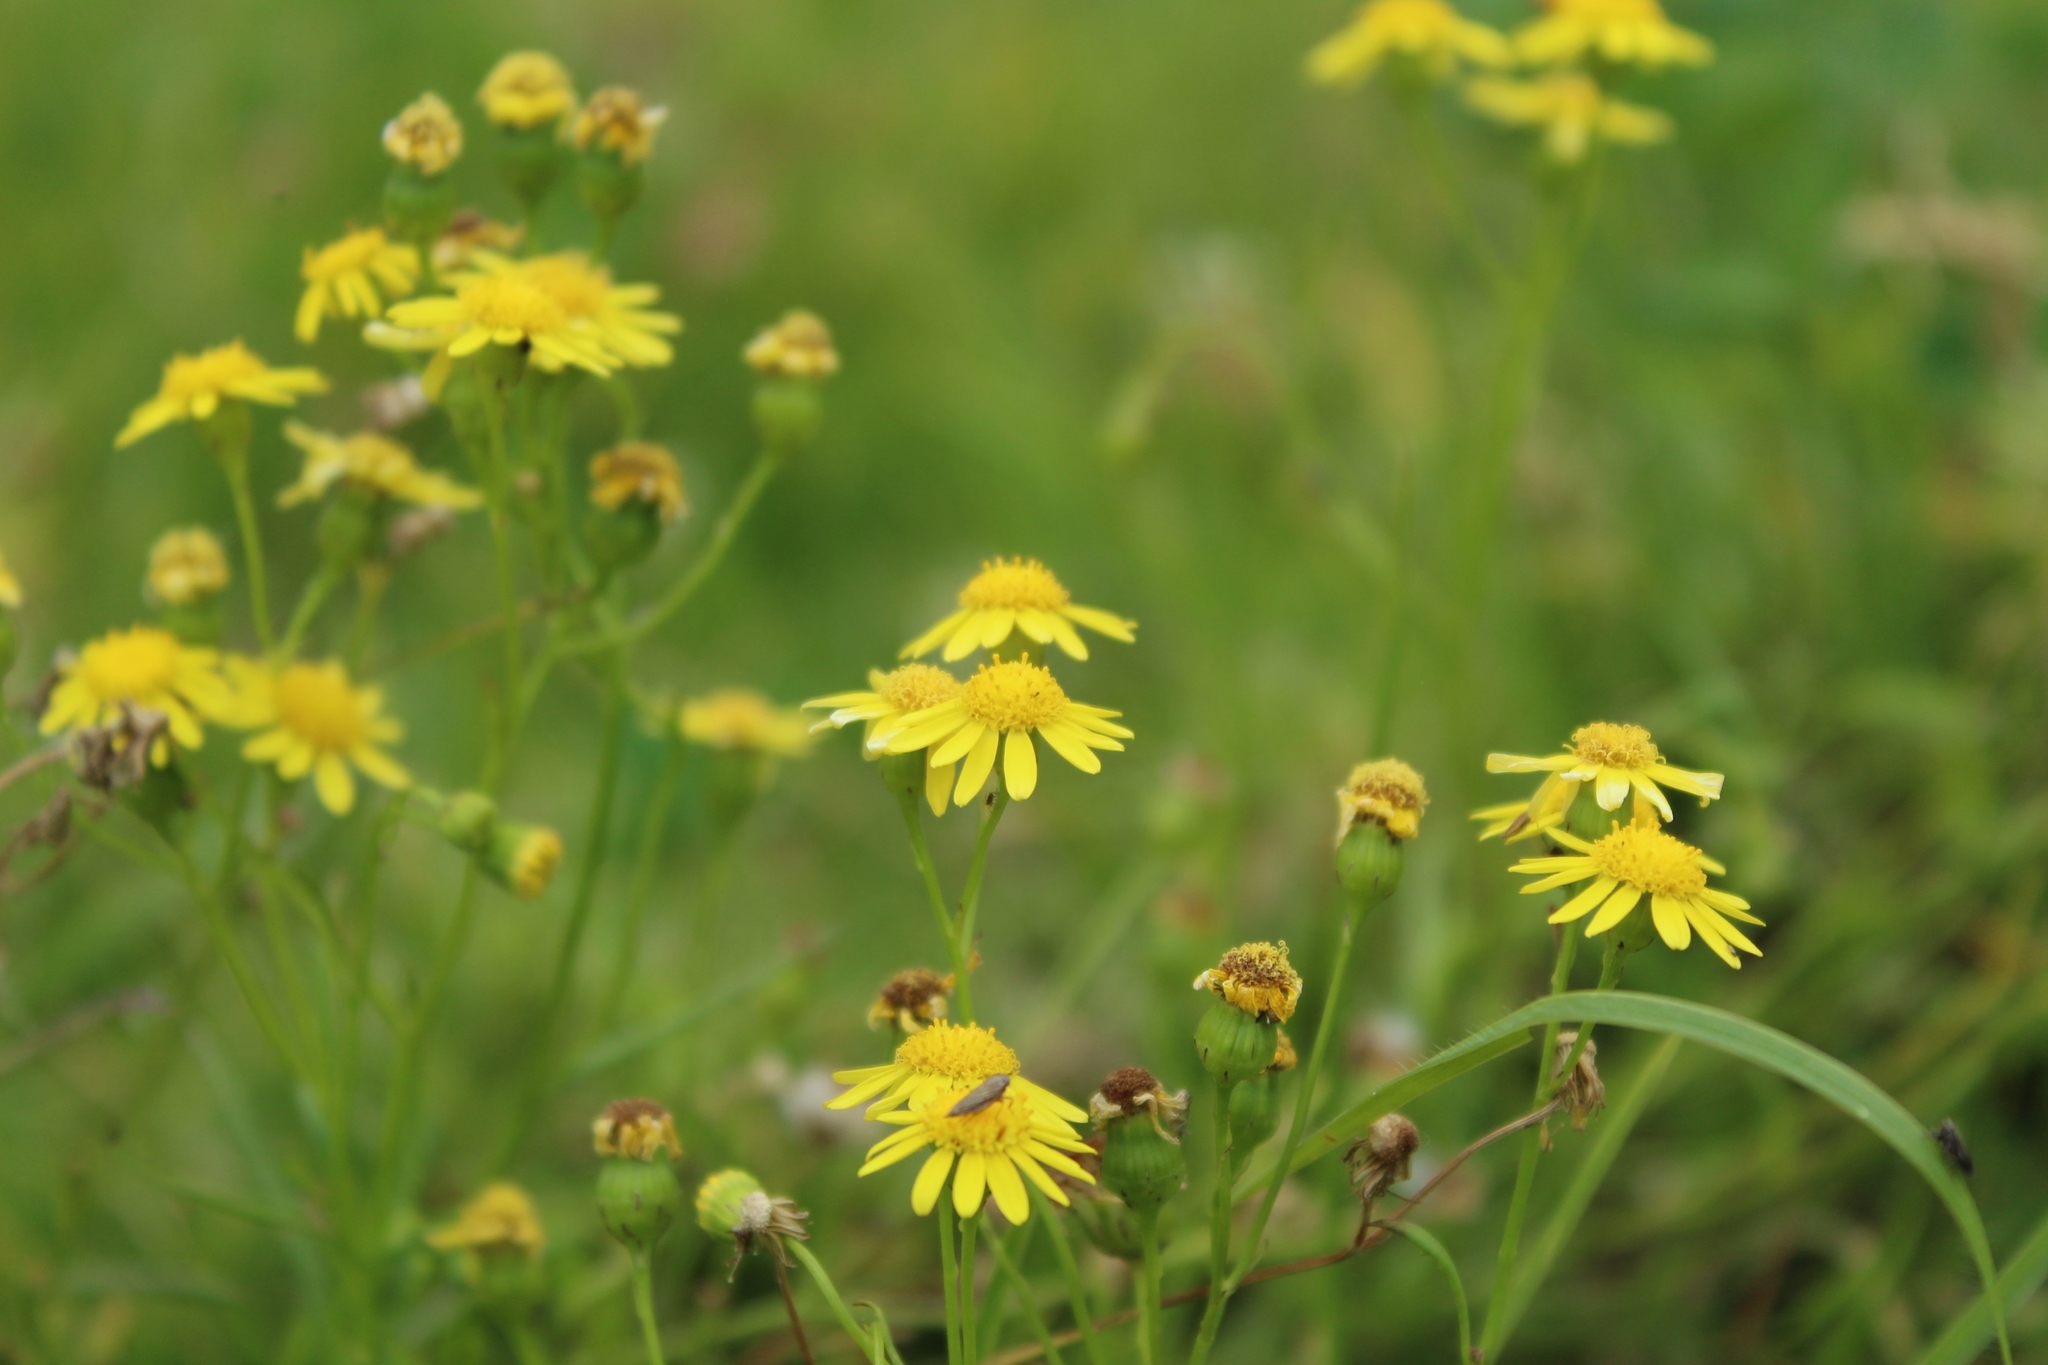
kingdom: Plantae
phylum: Tracheophyta
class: Magnoliopsida
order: Asterales
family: Asteraceae
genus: Senecio
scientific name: Senecio madagascariensis
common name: Madagascar ragwort
